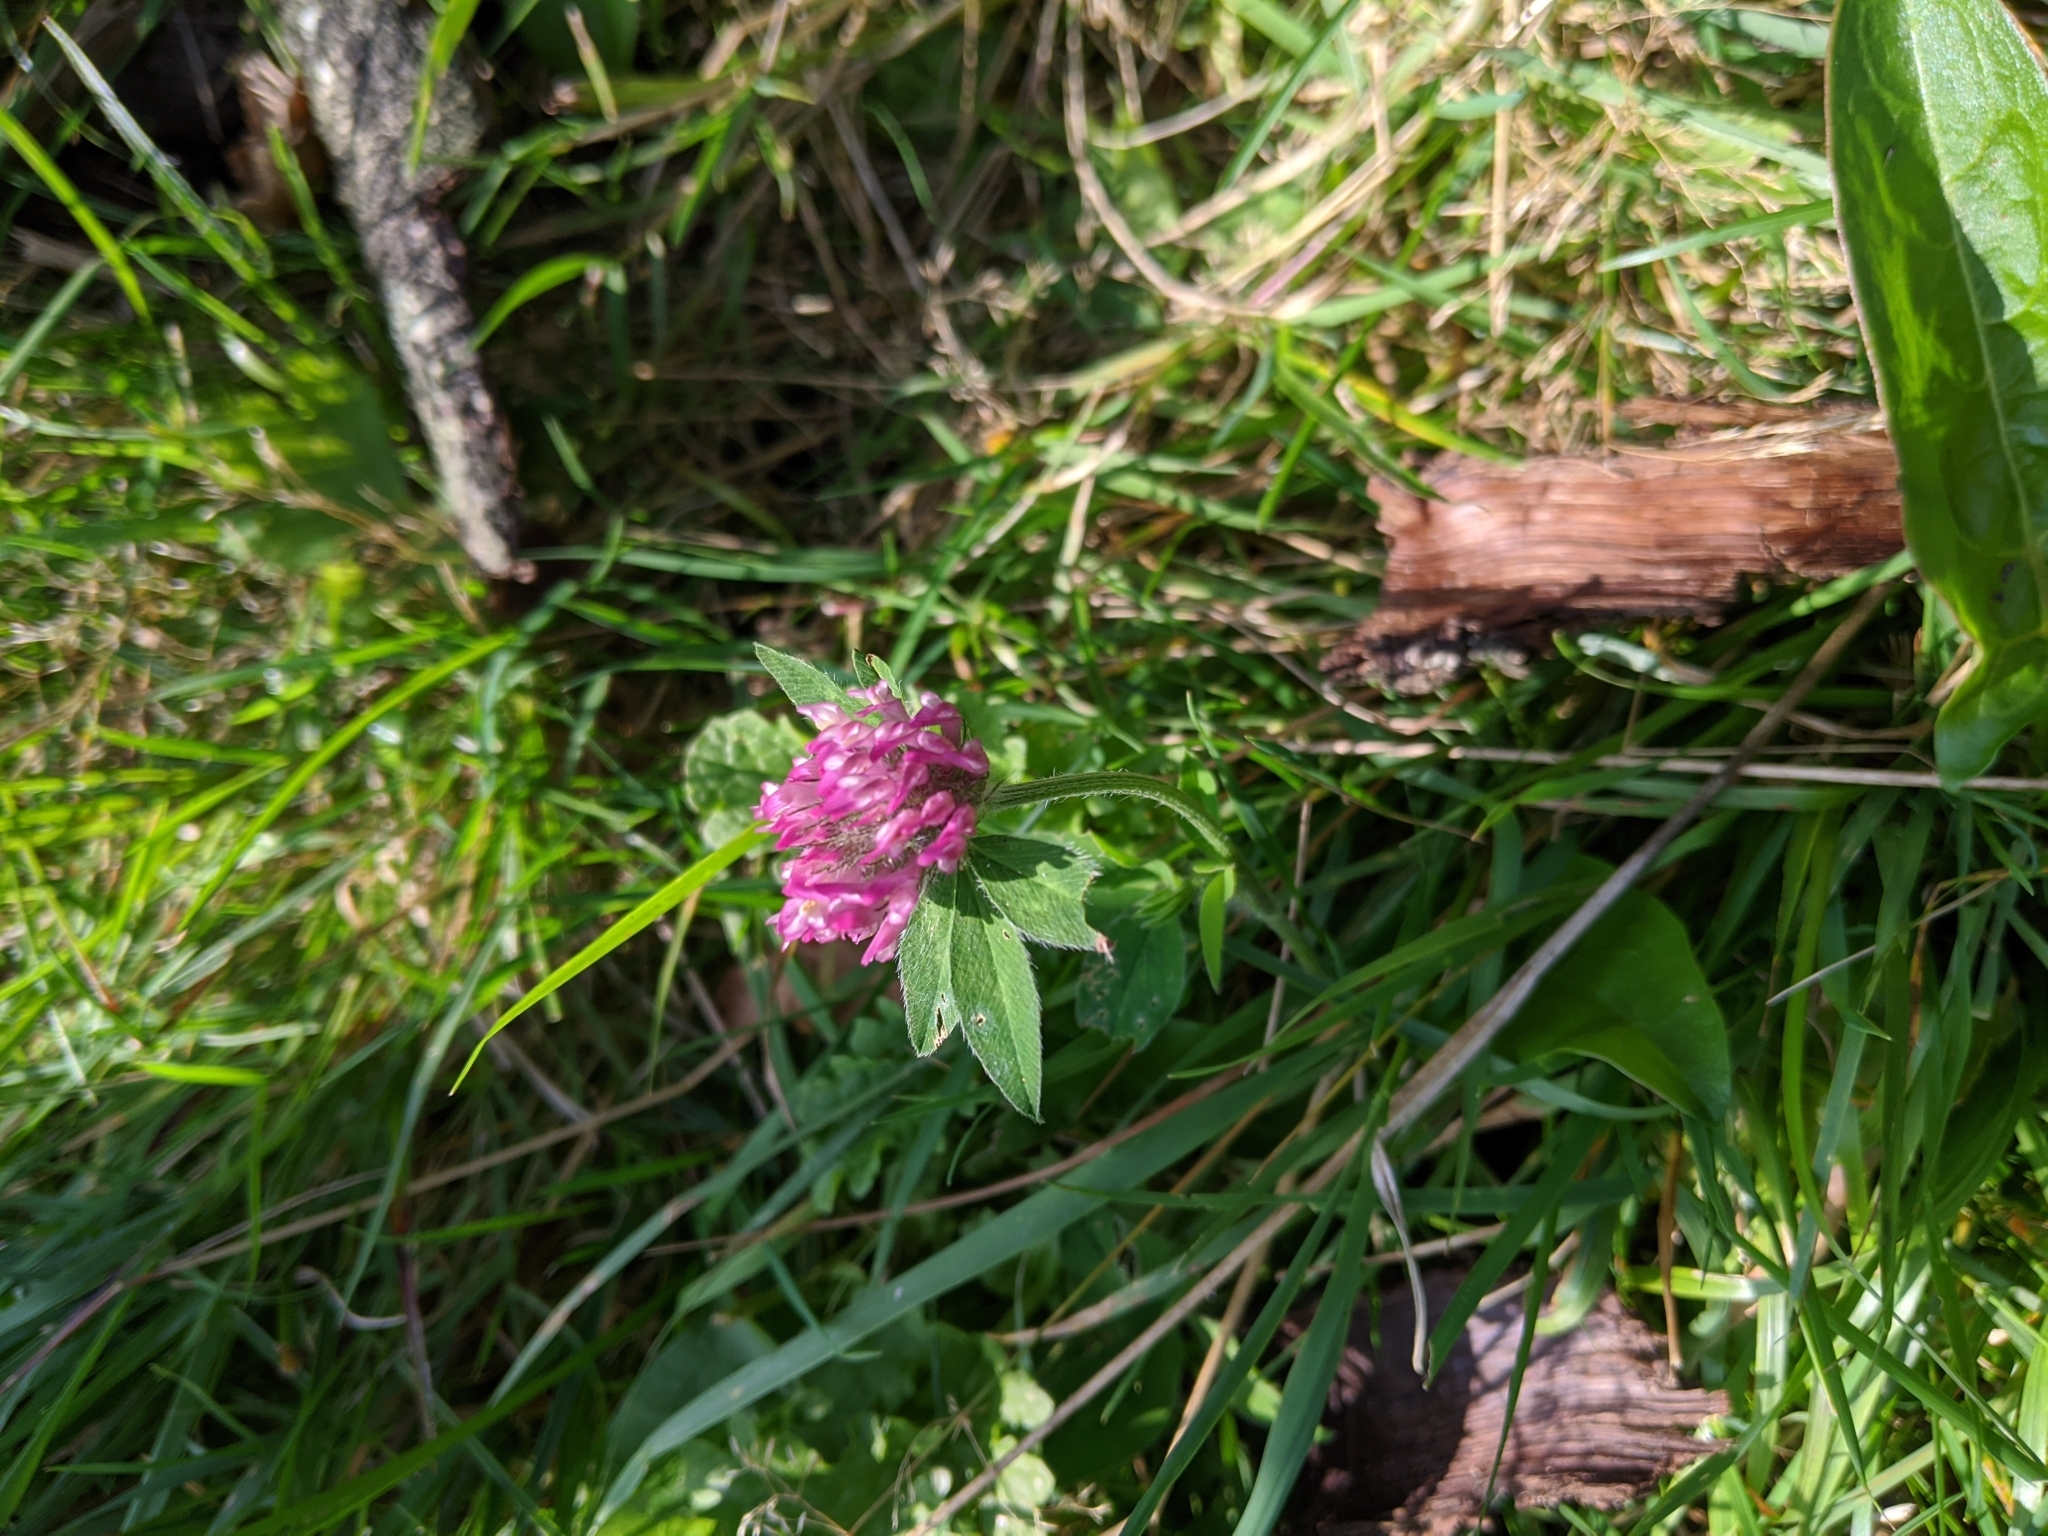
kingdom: Plantae
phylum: Tracheophyta
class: Magnoliopsida
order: Fabales
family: Fabaceae
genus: Trifolium
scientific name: Trifolium pratense
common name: Red clover
